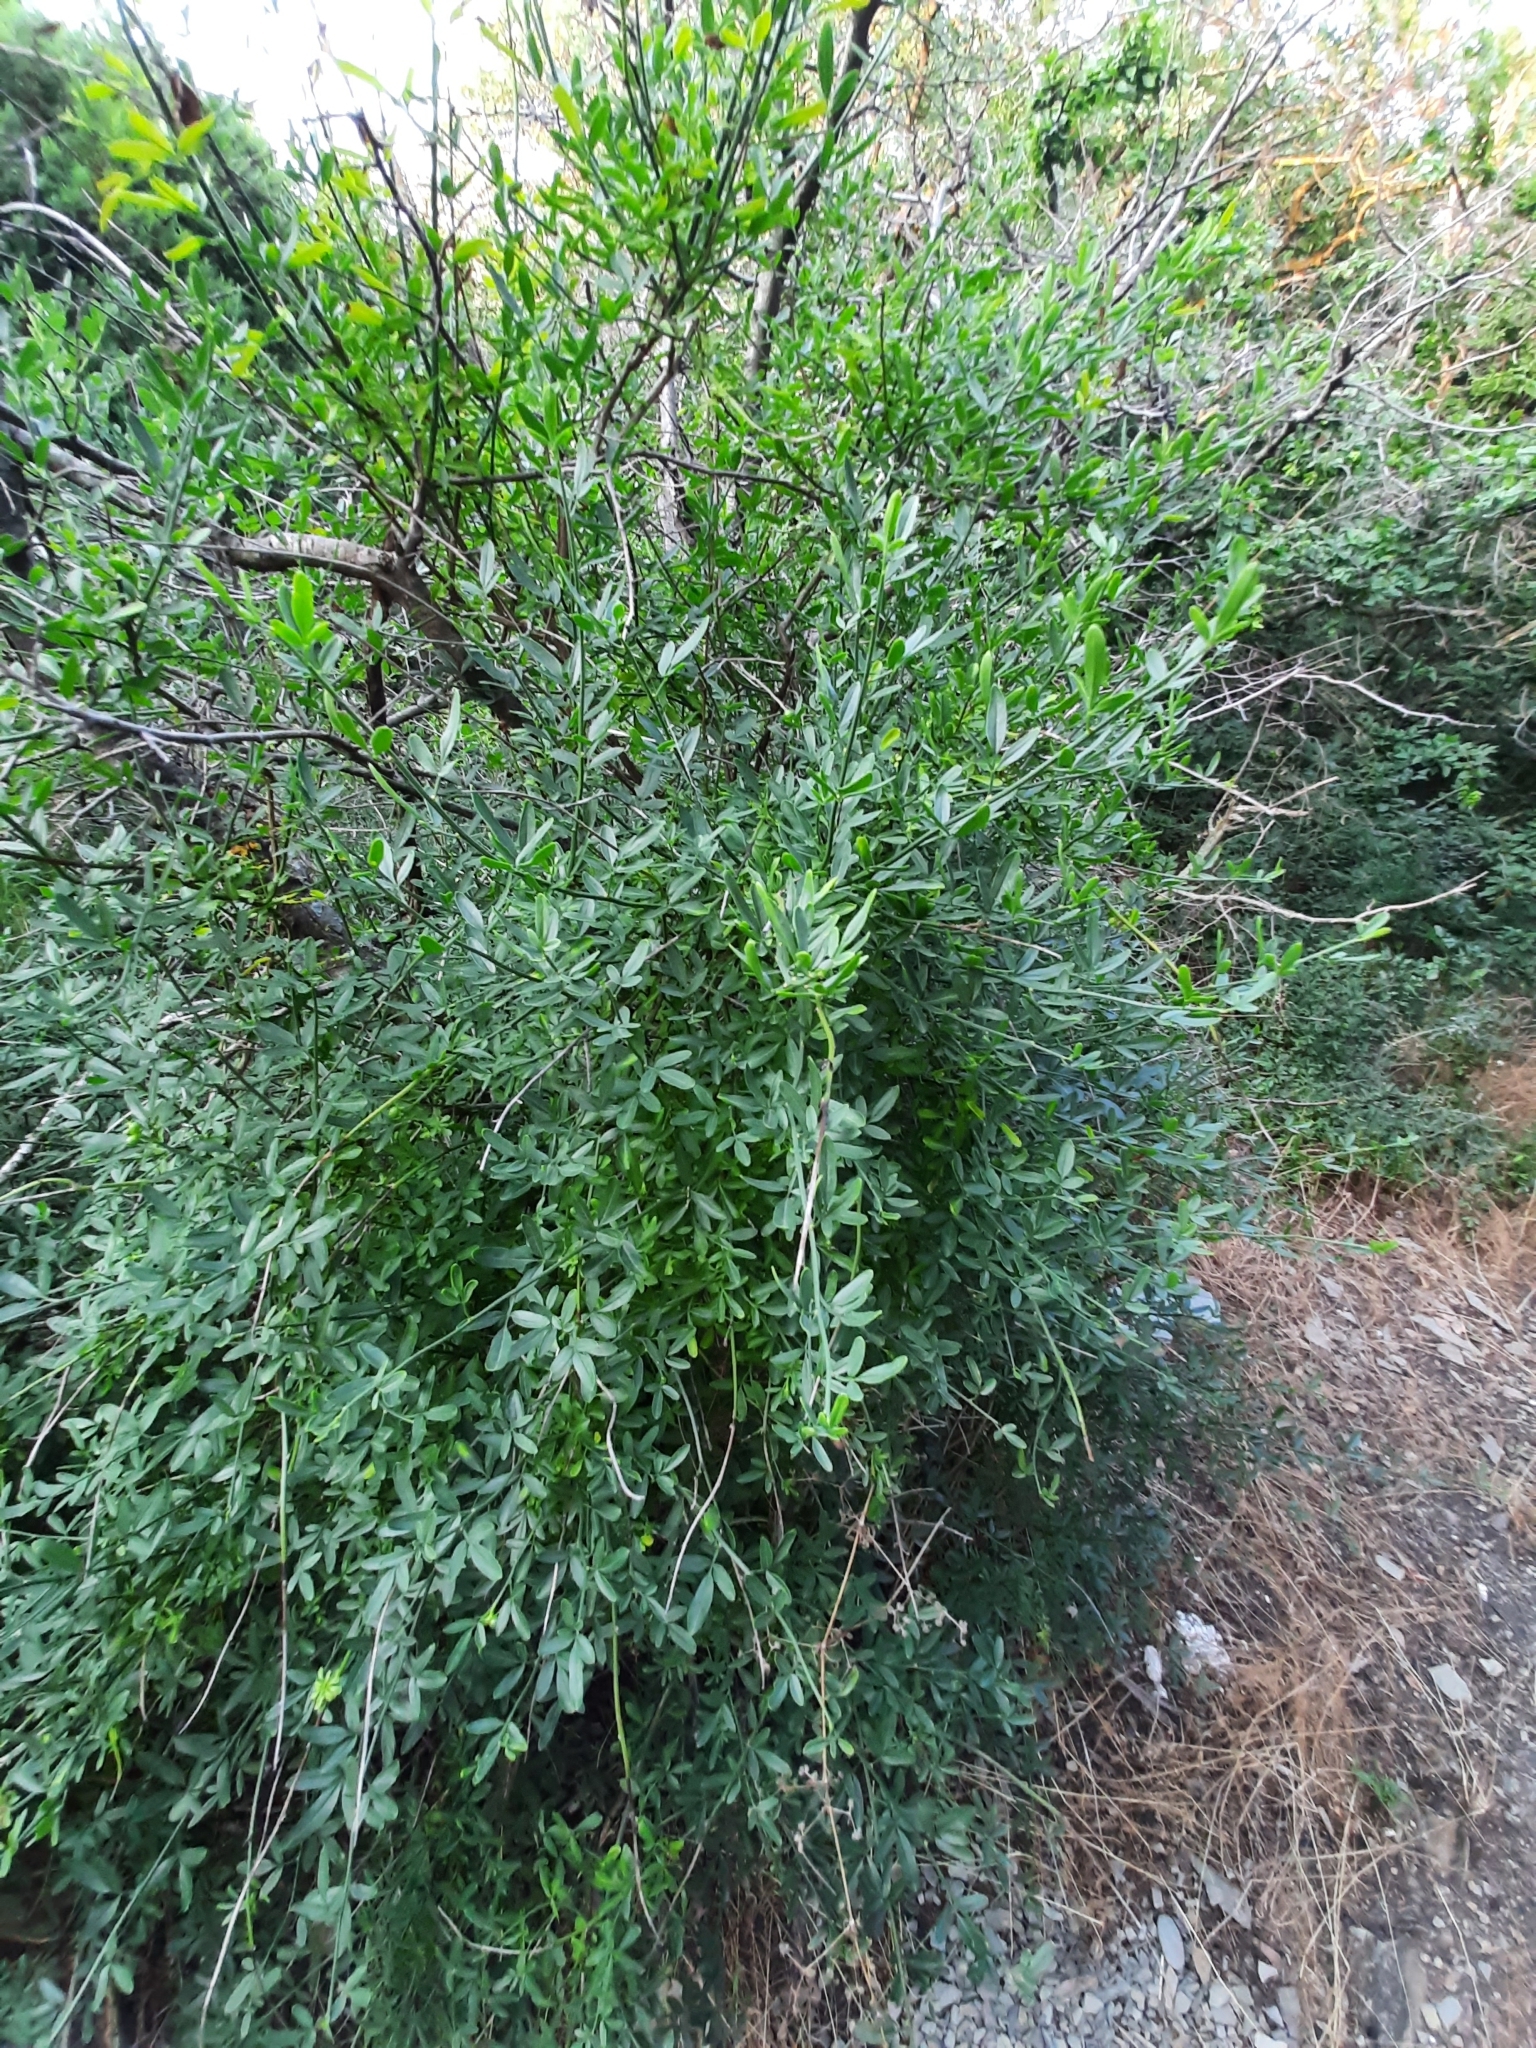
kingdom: Plantae
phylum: Tracheophyta
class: Magnoliopsida
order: Lamiales
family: Oleaceae
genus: Chrysojasminum
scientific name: Chrysojasminum fruticans
